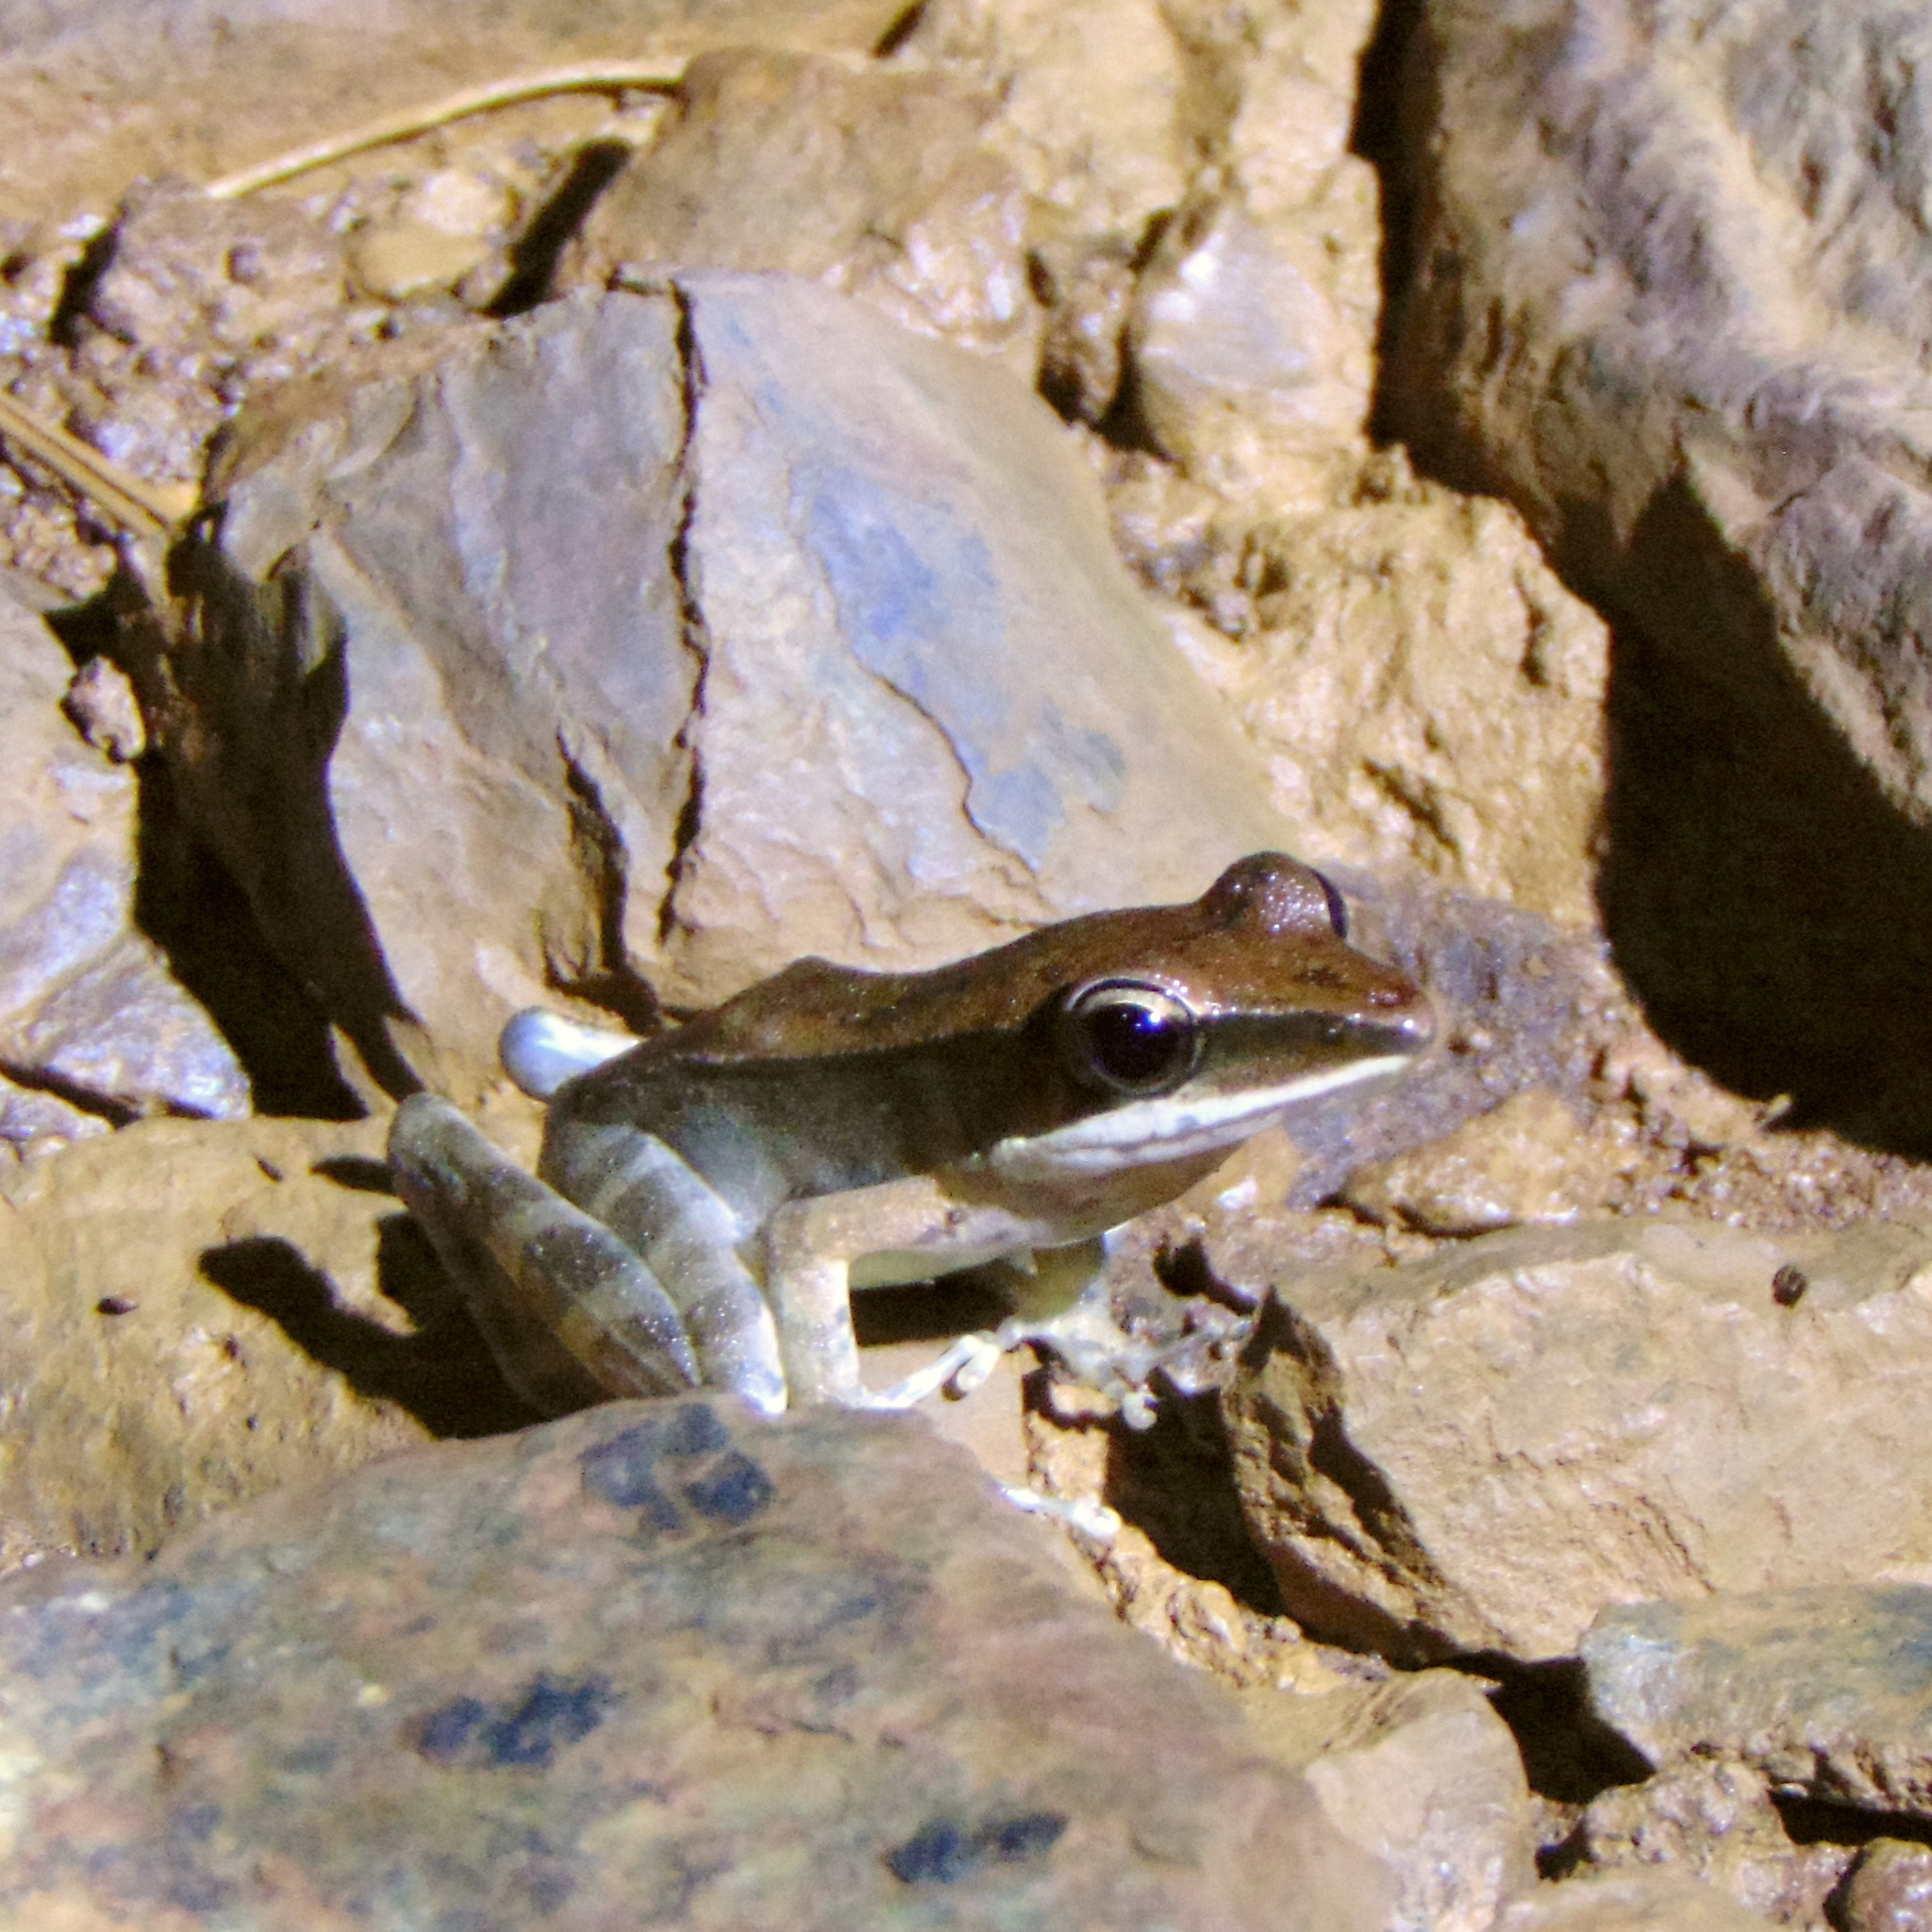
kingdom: Animalia
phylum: Chordata
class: Amphibia
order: Anura
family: Ranidae
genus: Papurana
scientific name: Papurana moluccana
